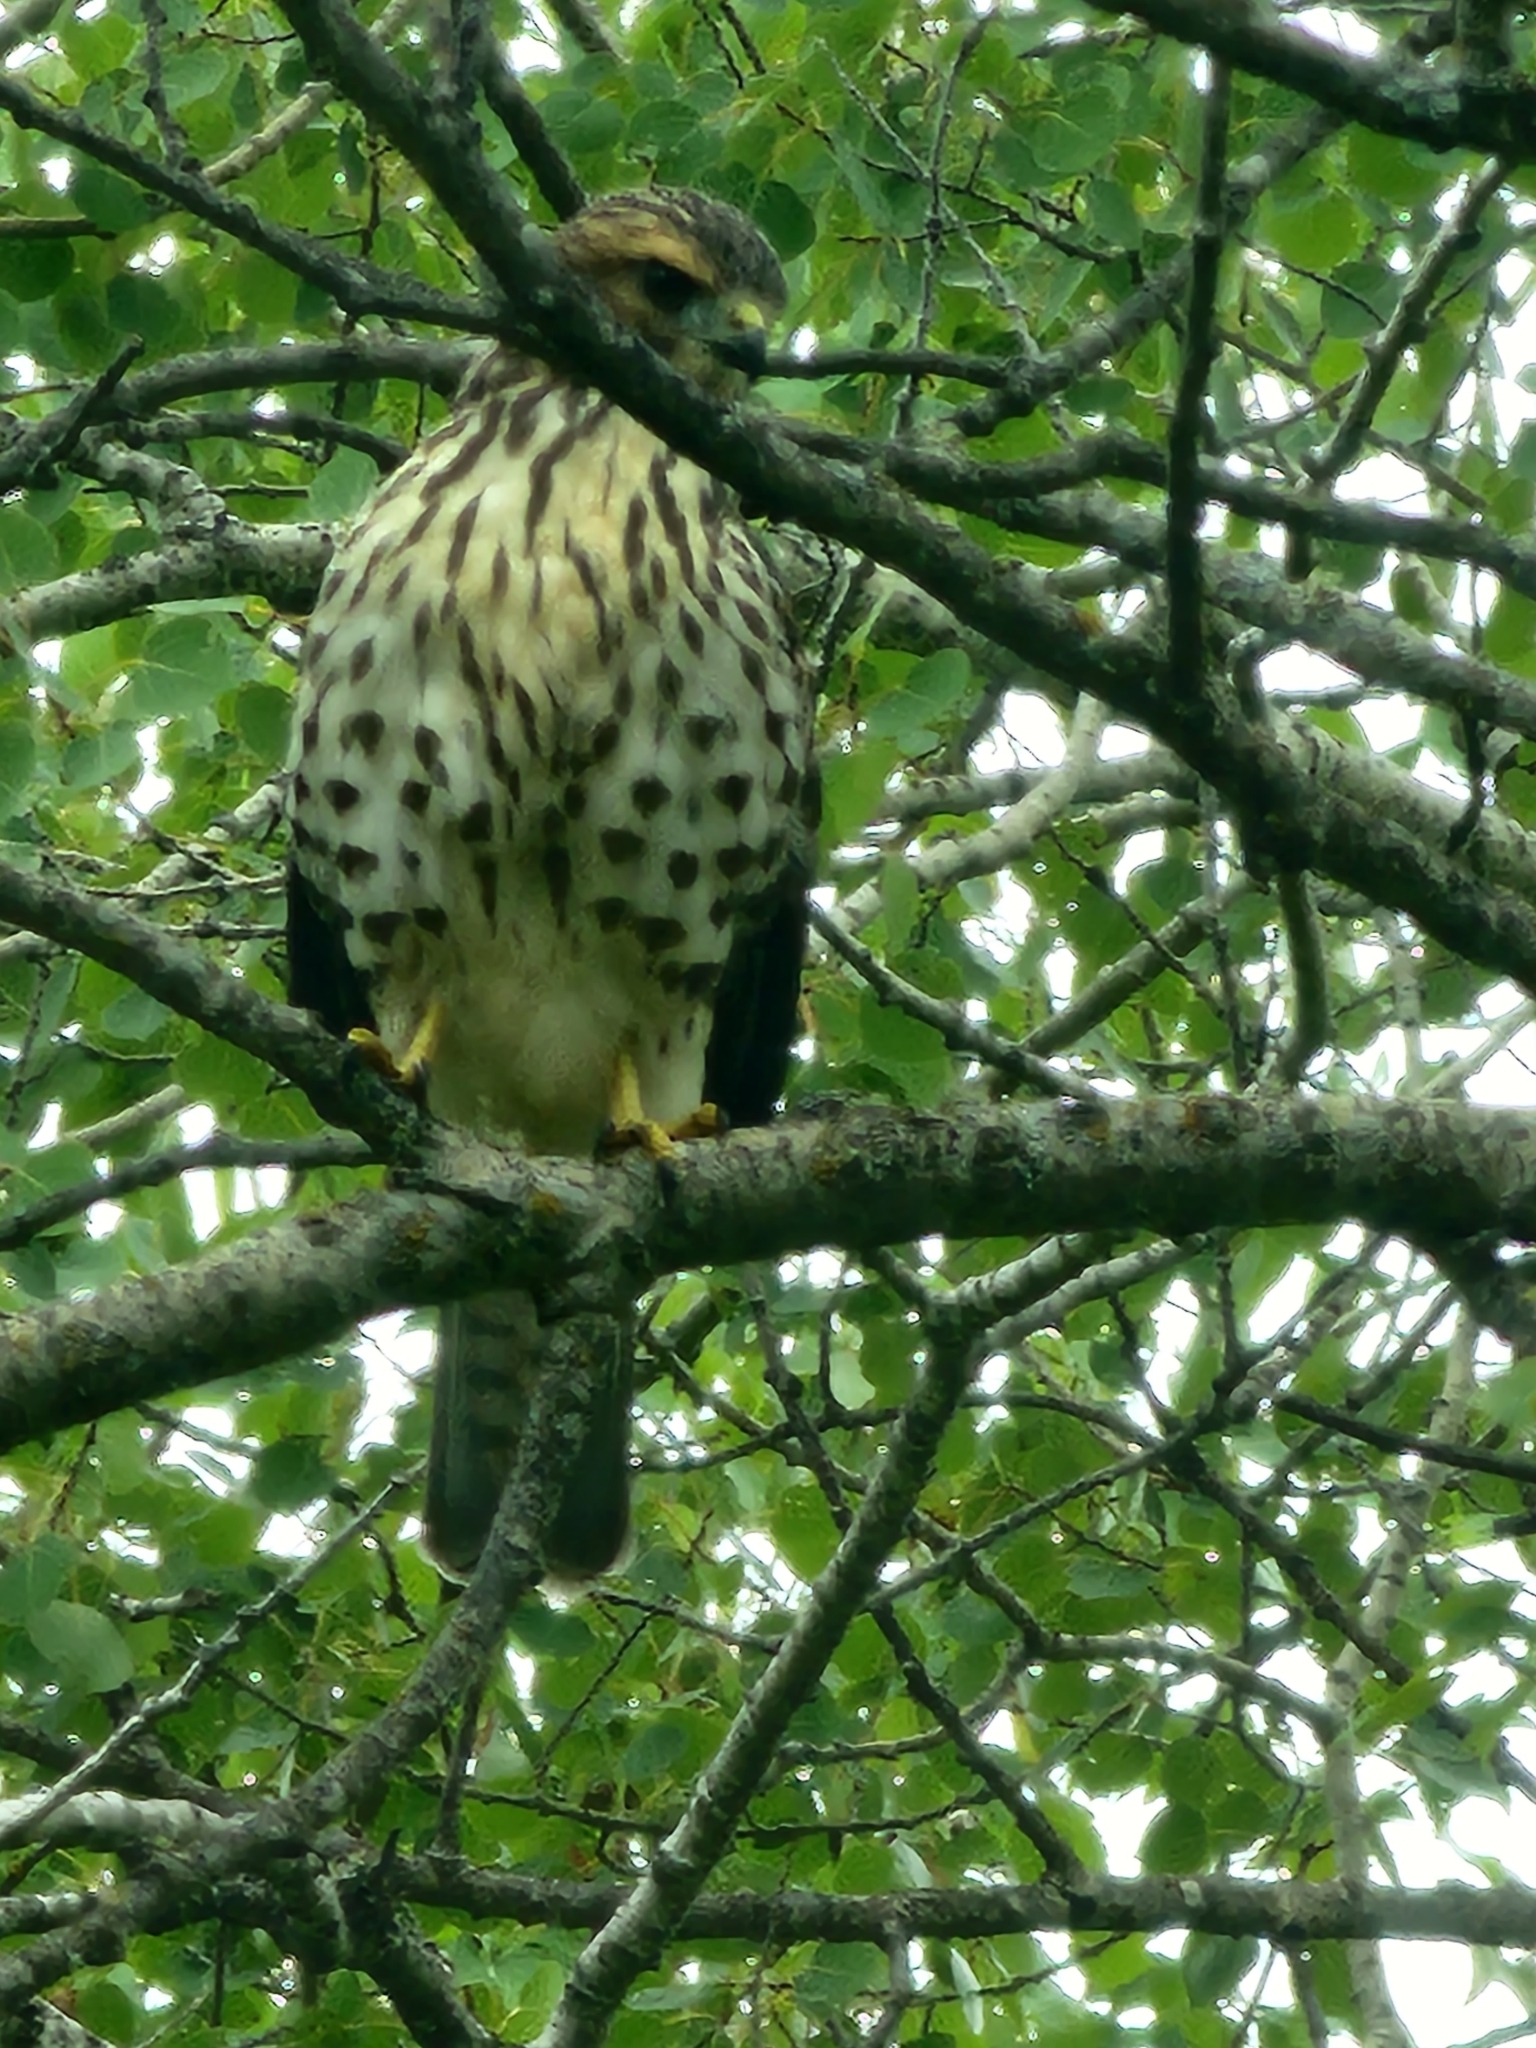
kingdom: Animalia
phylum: Chordata
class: Aves
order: Accipitriformes
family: Accipitridae
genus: Buteo
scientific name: Buteo platypterus
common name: Broad-winged hawk
